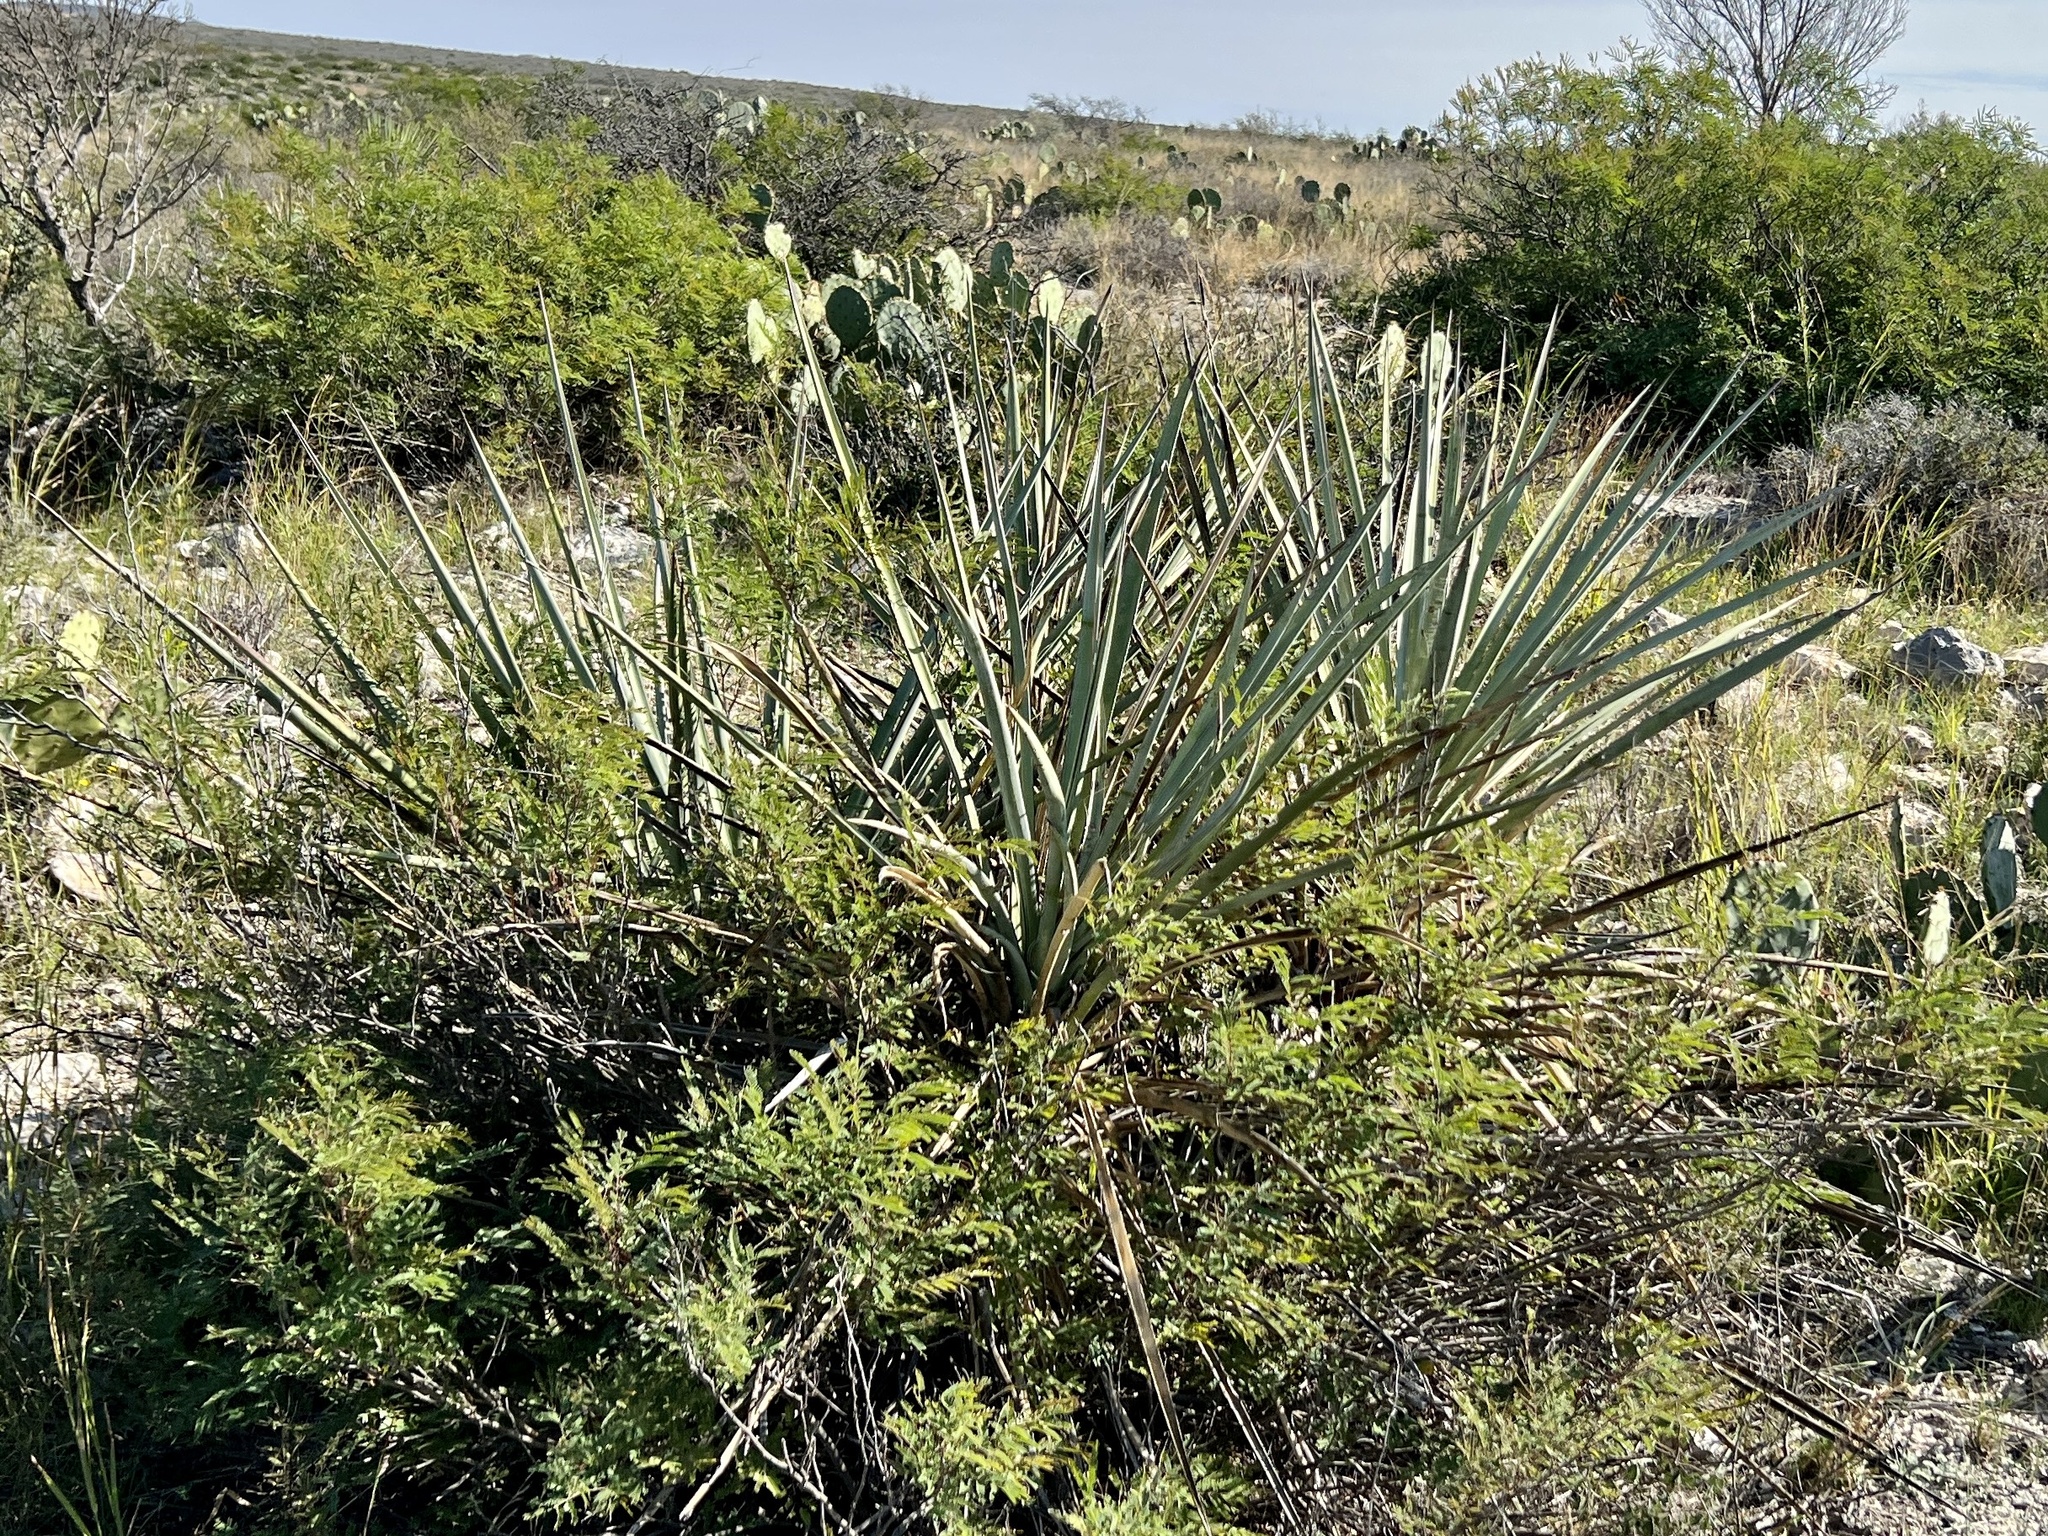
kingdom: Plantae
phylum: Tracheophyta
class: Liliopsida
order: Asparagales
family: Asparagaceae
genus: Yucca
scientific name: Yucca treculiana
